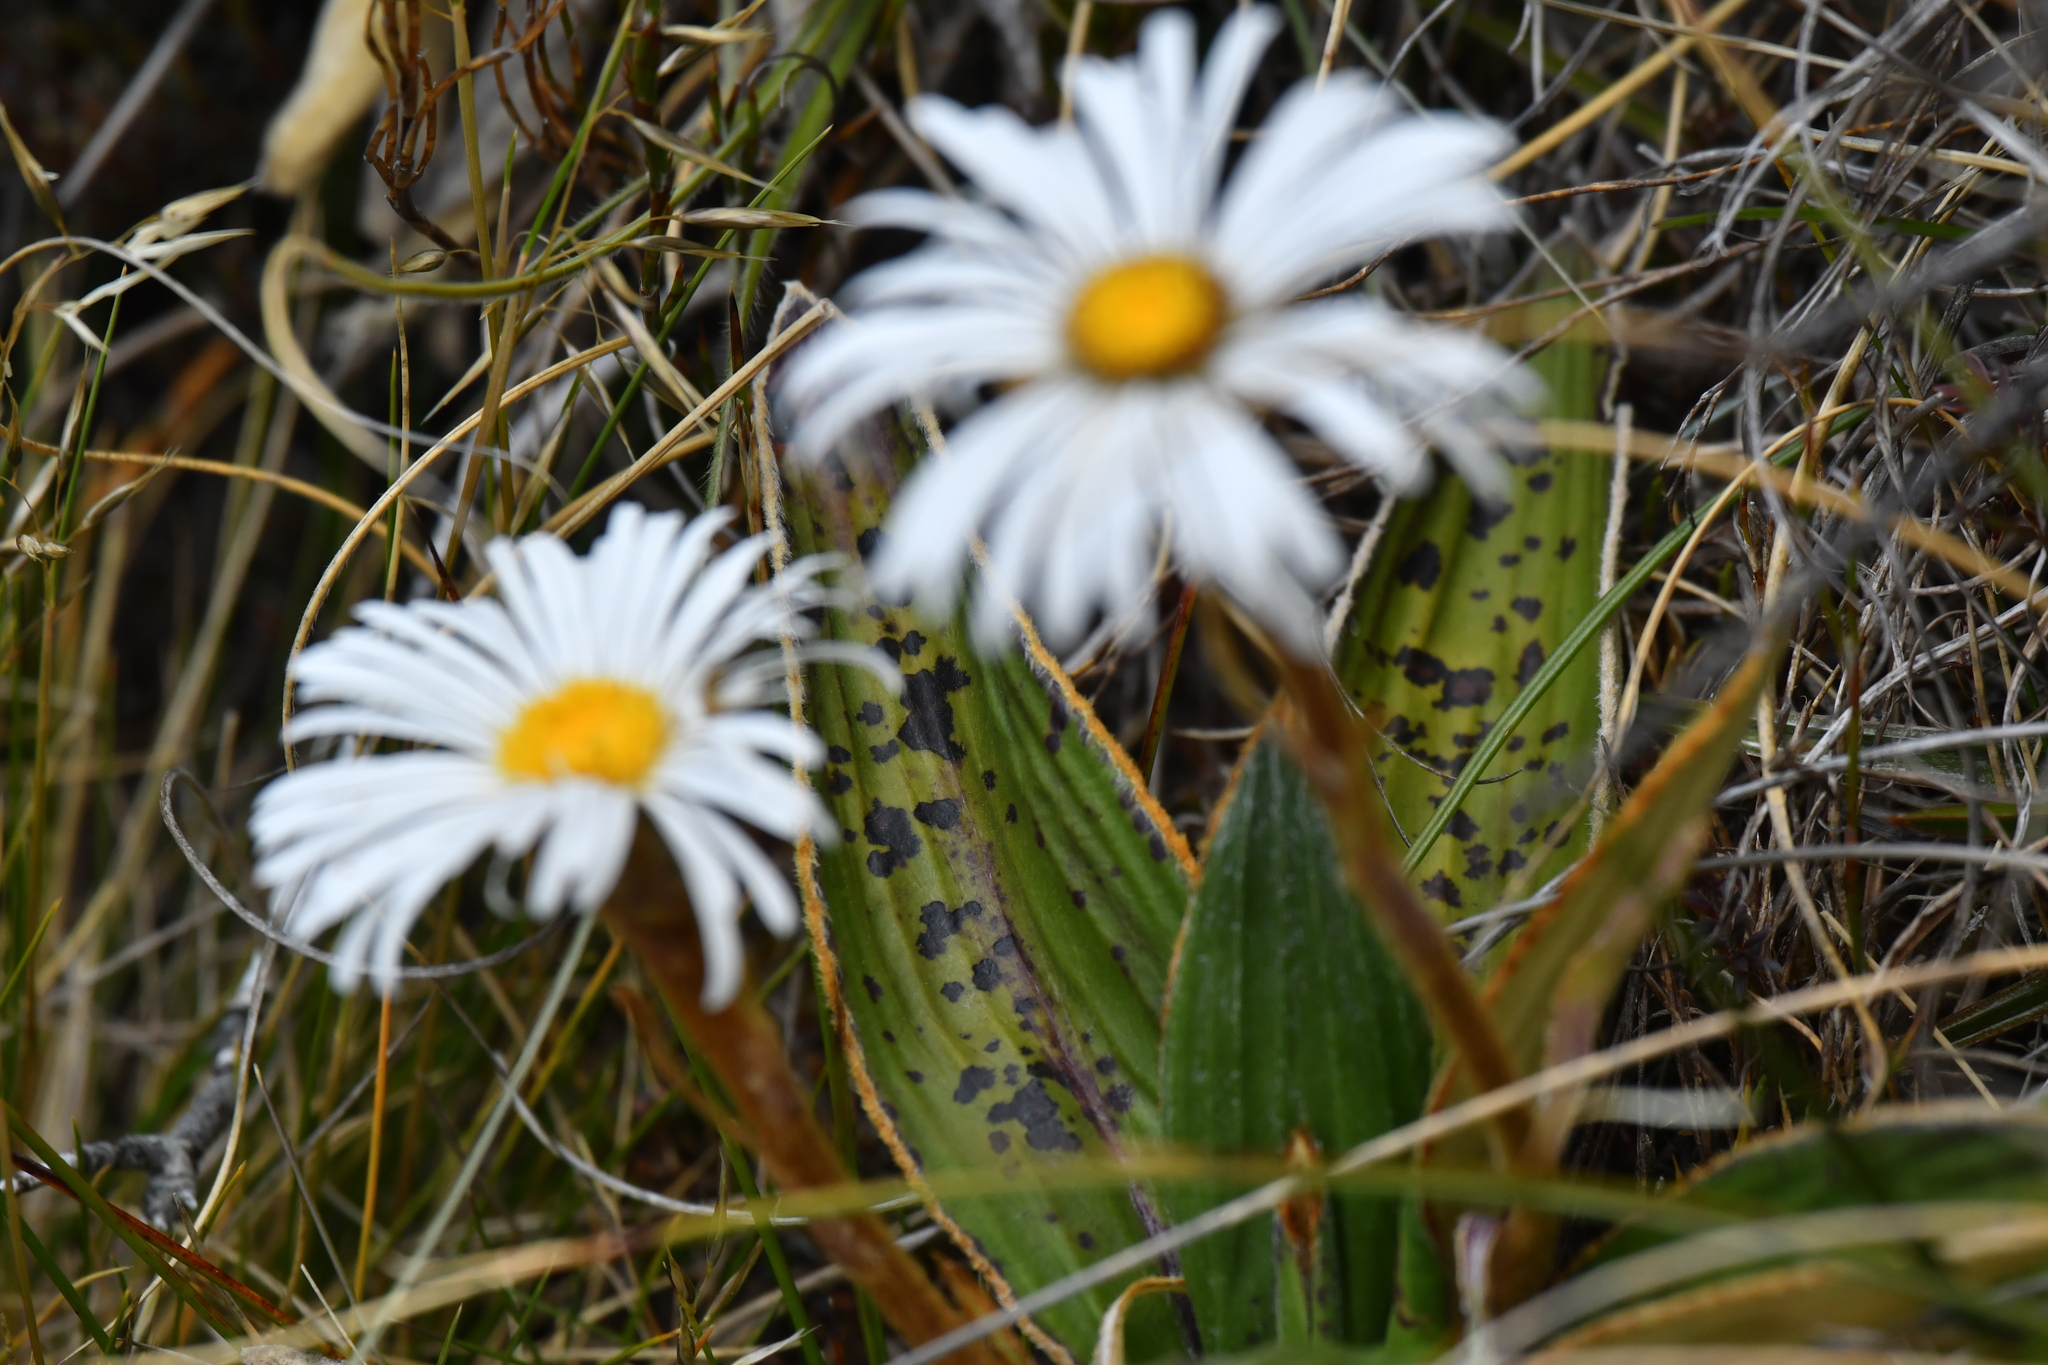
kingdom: Plantae
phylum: Tracheophyta
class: Magnoliopsida
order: Asterales
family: Asteraceae
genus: Celmisia
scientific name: Celmisia traversii
